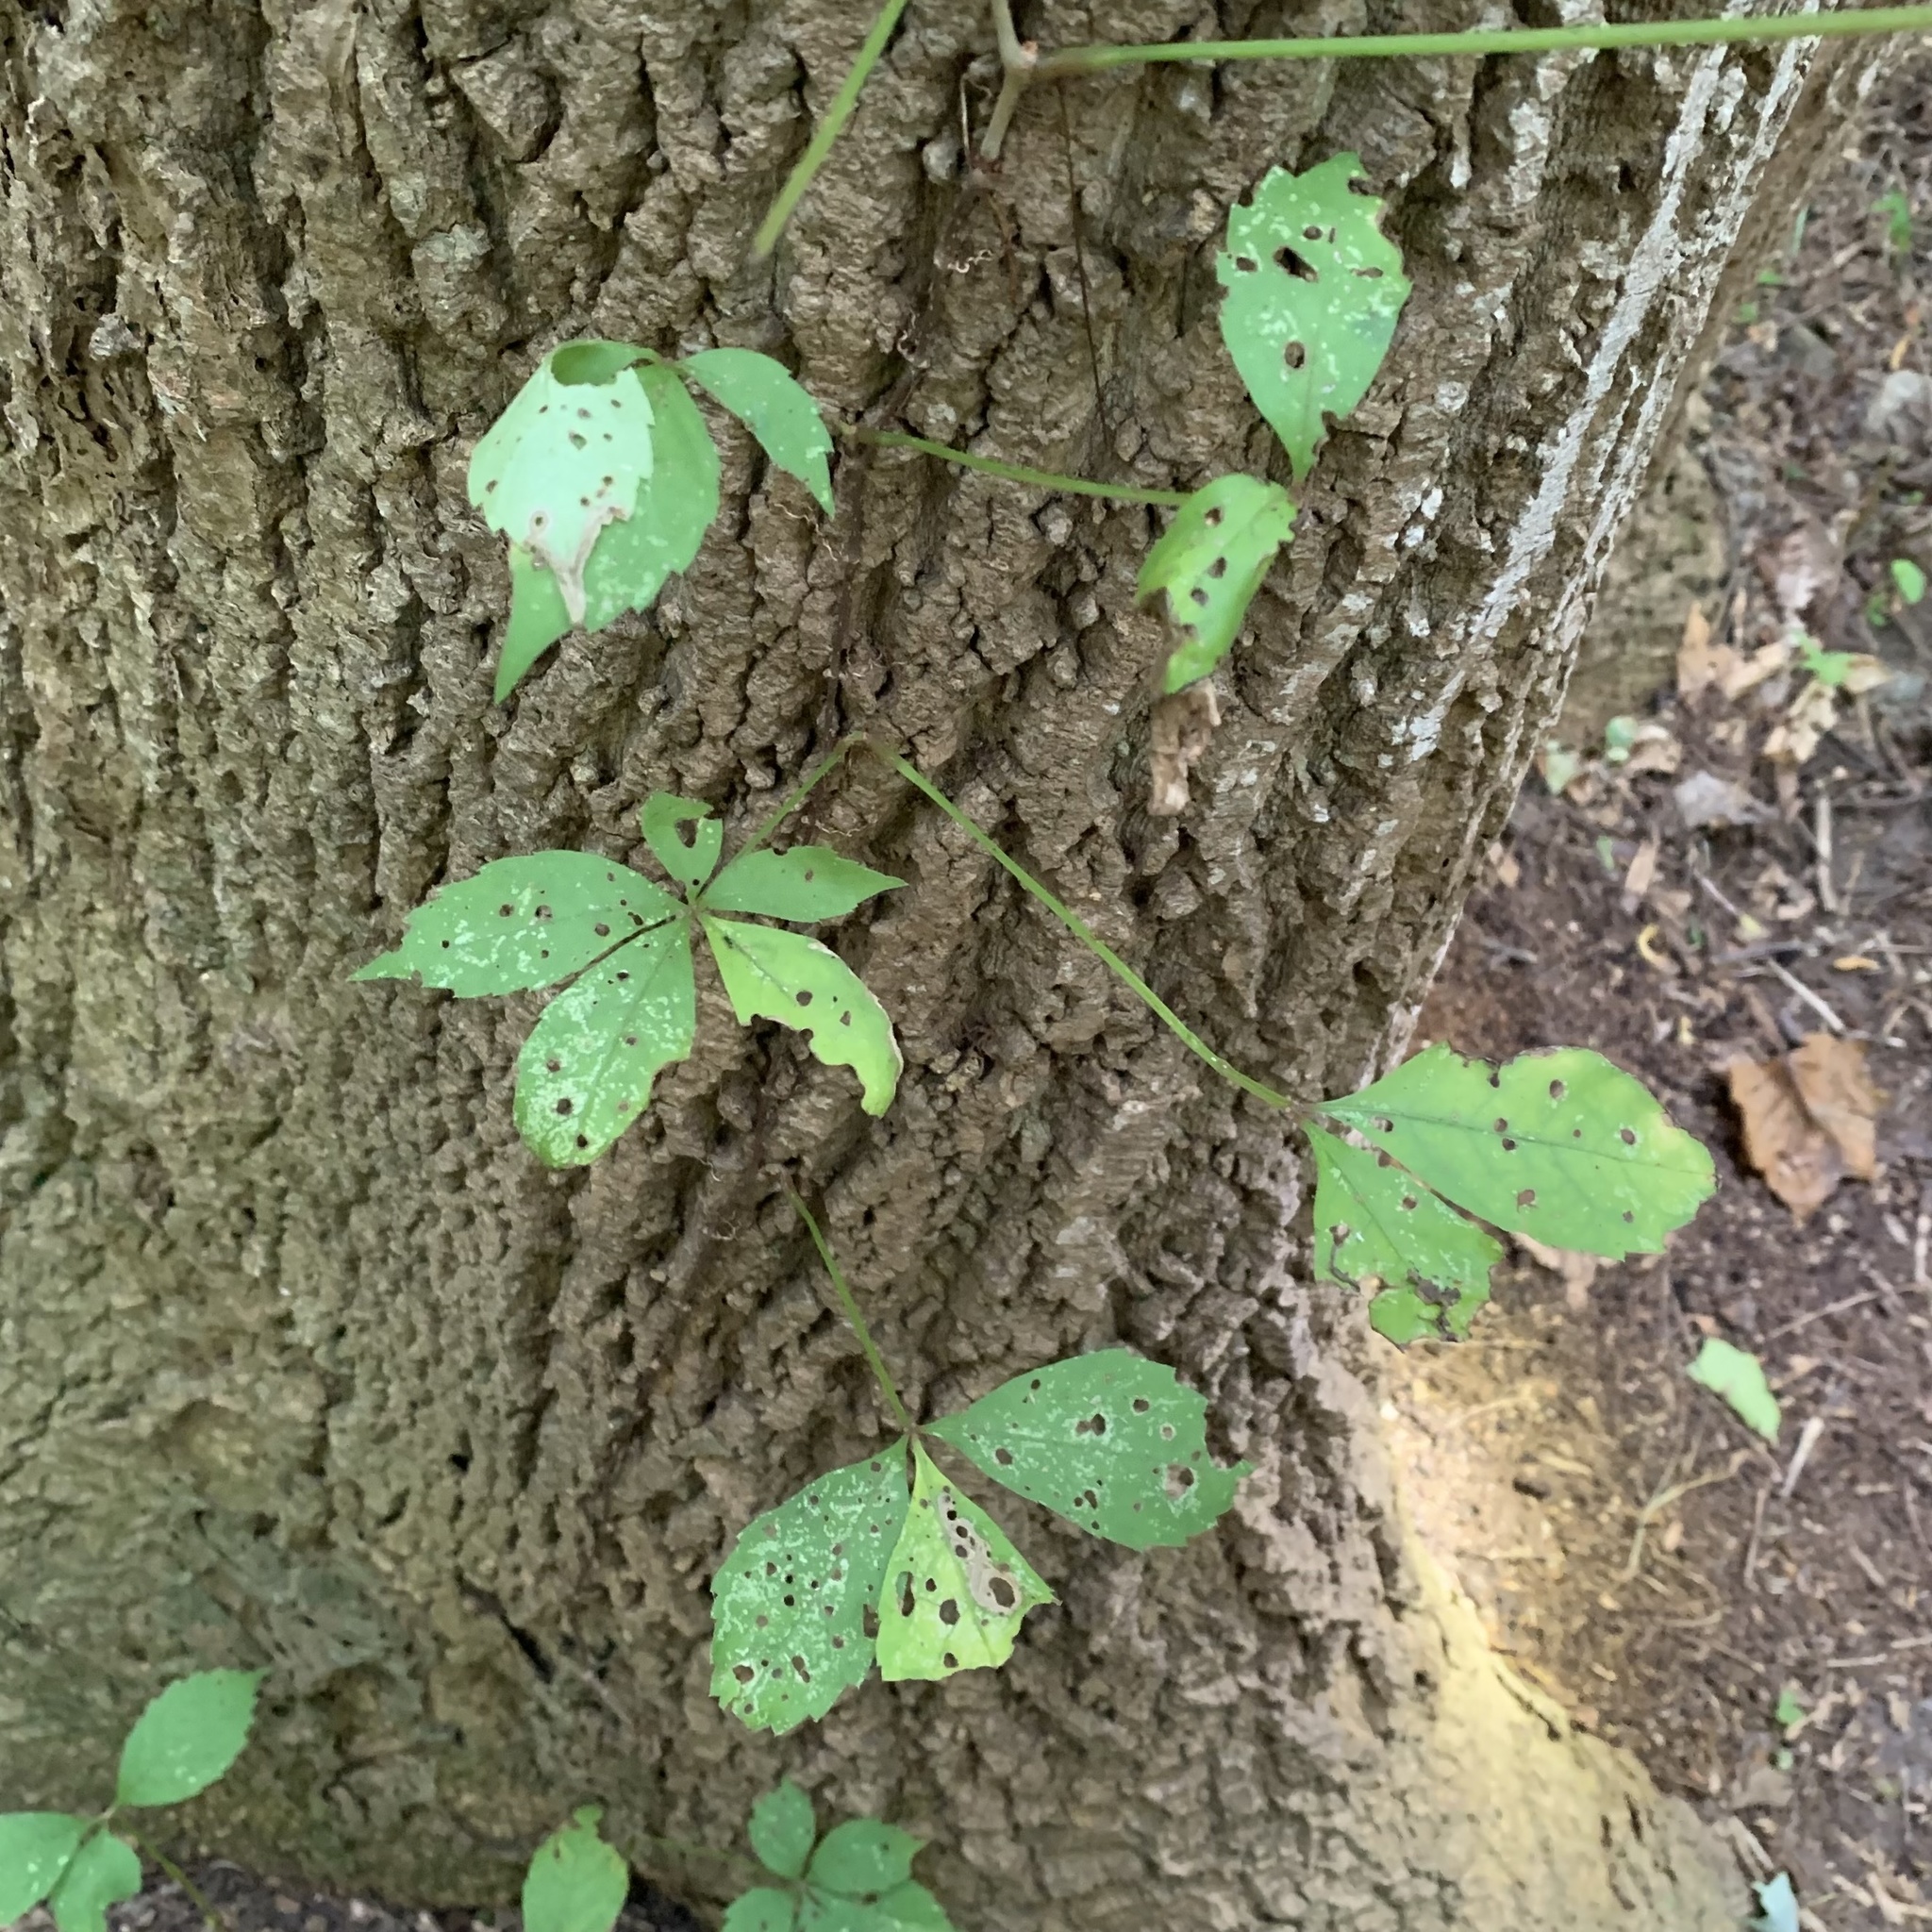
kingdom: Plantae
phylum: Tracheophyta
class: Magnoliopsida
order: Vitales
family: Vitaceae
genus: Parthenocissus
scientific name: Parthenocissus quinquefolia
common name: Virginia-creeper
